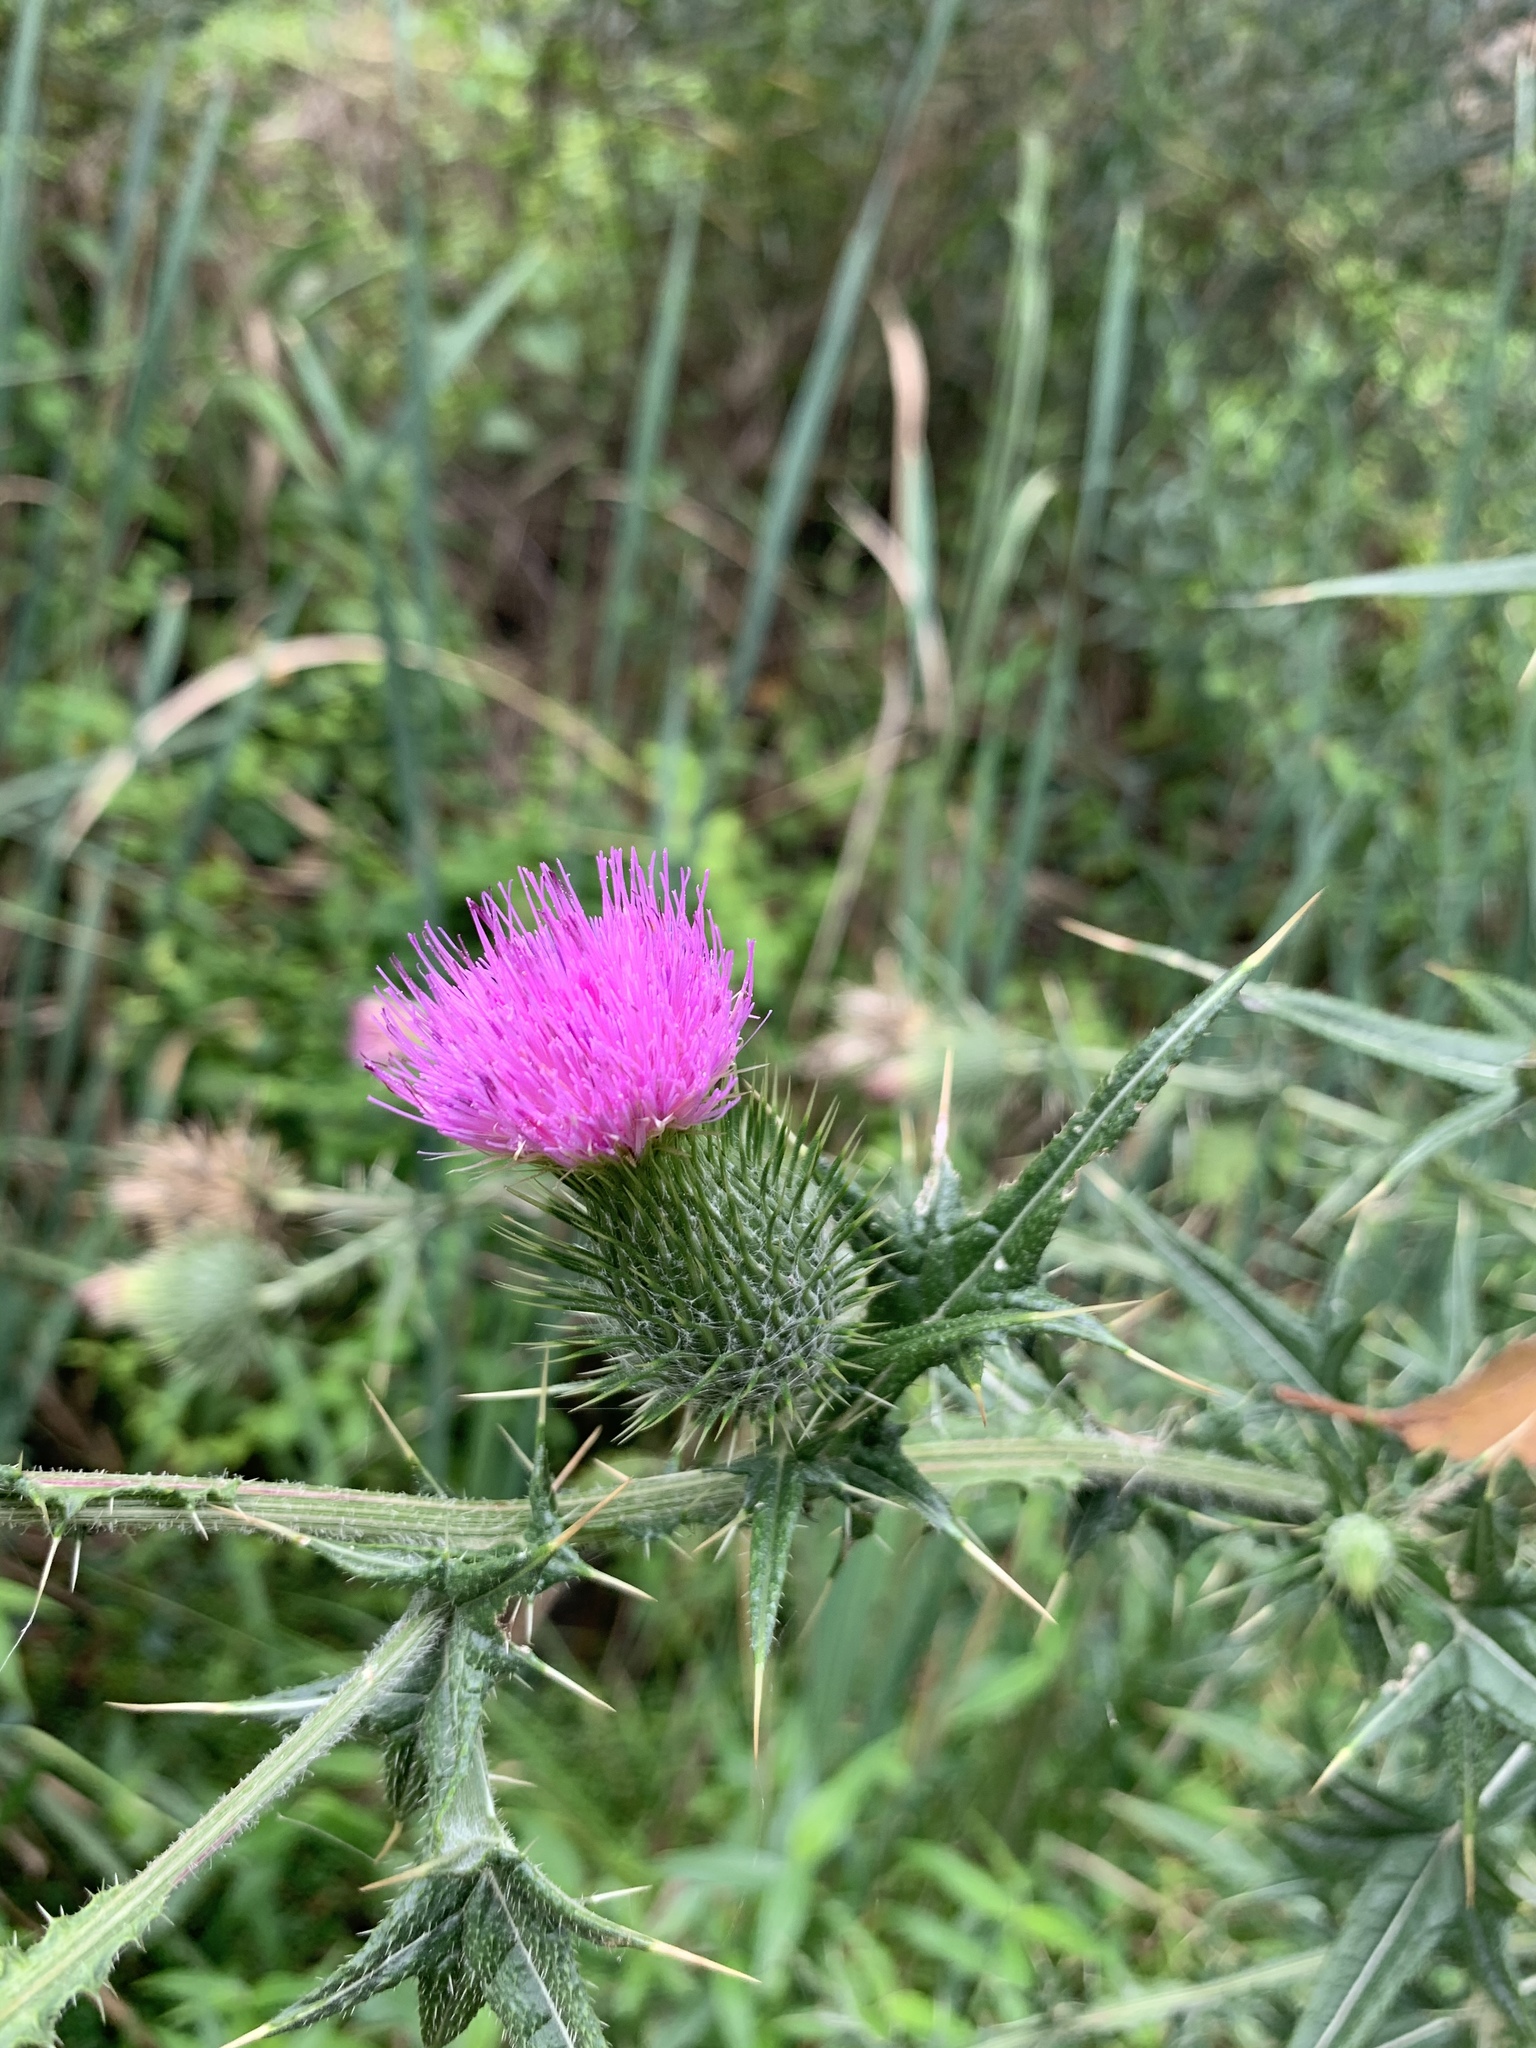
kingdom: Plantae
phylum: Tracheophyta
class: Magnoliopsida
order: Asterales
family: Asteraceae
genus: Cirsium
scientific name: Cirsium vulgare
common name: Bull thistle
